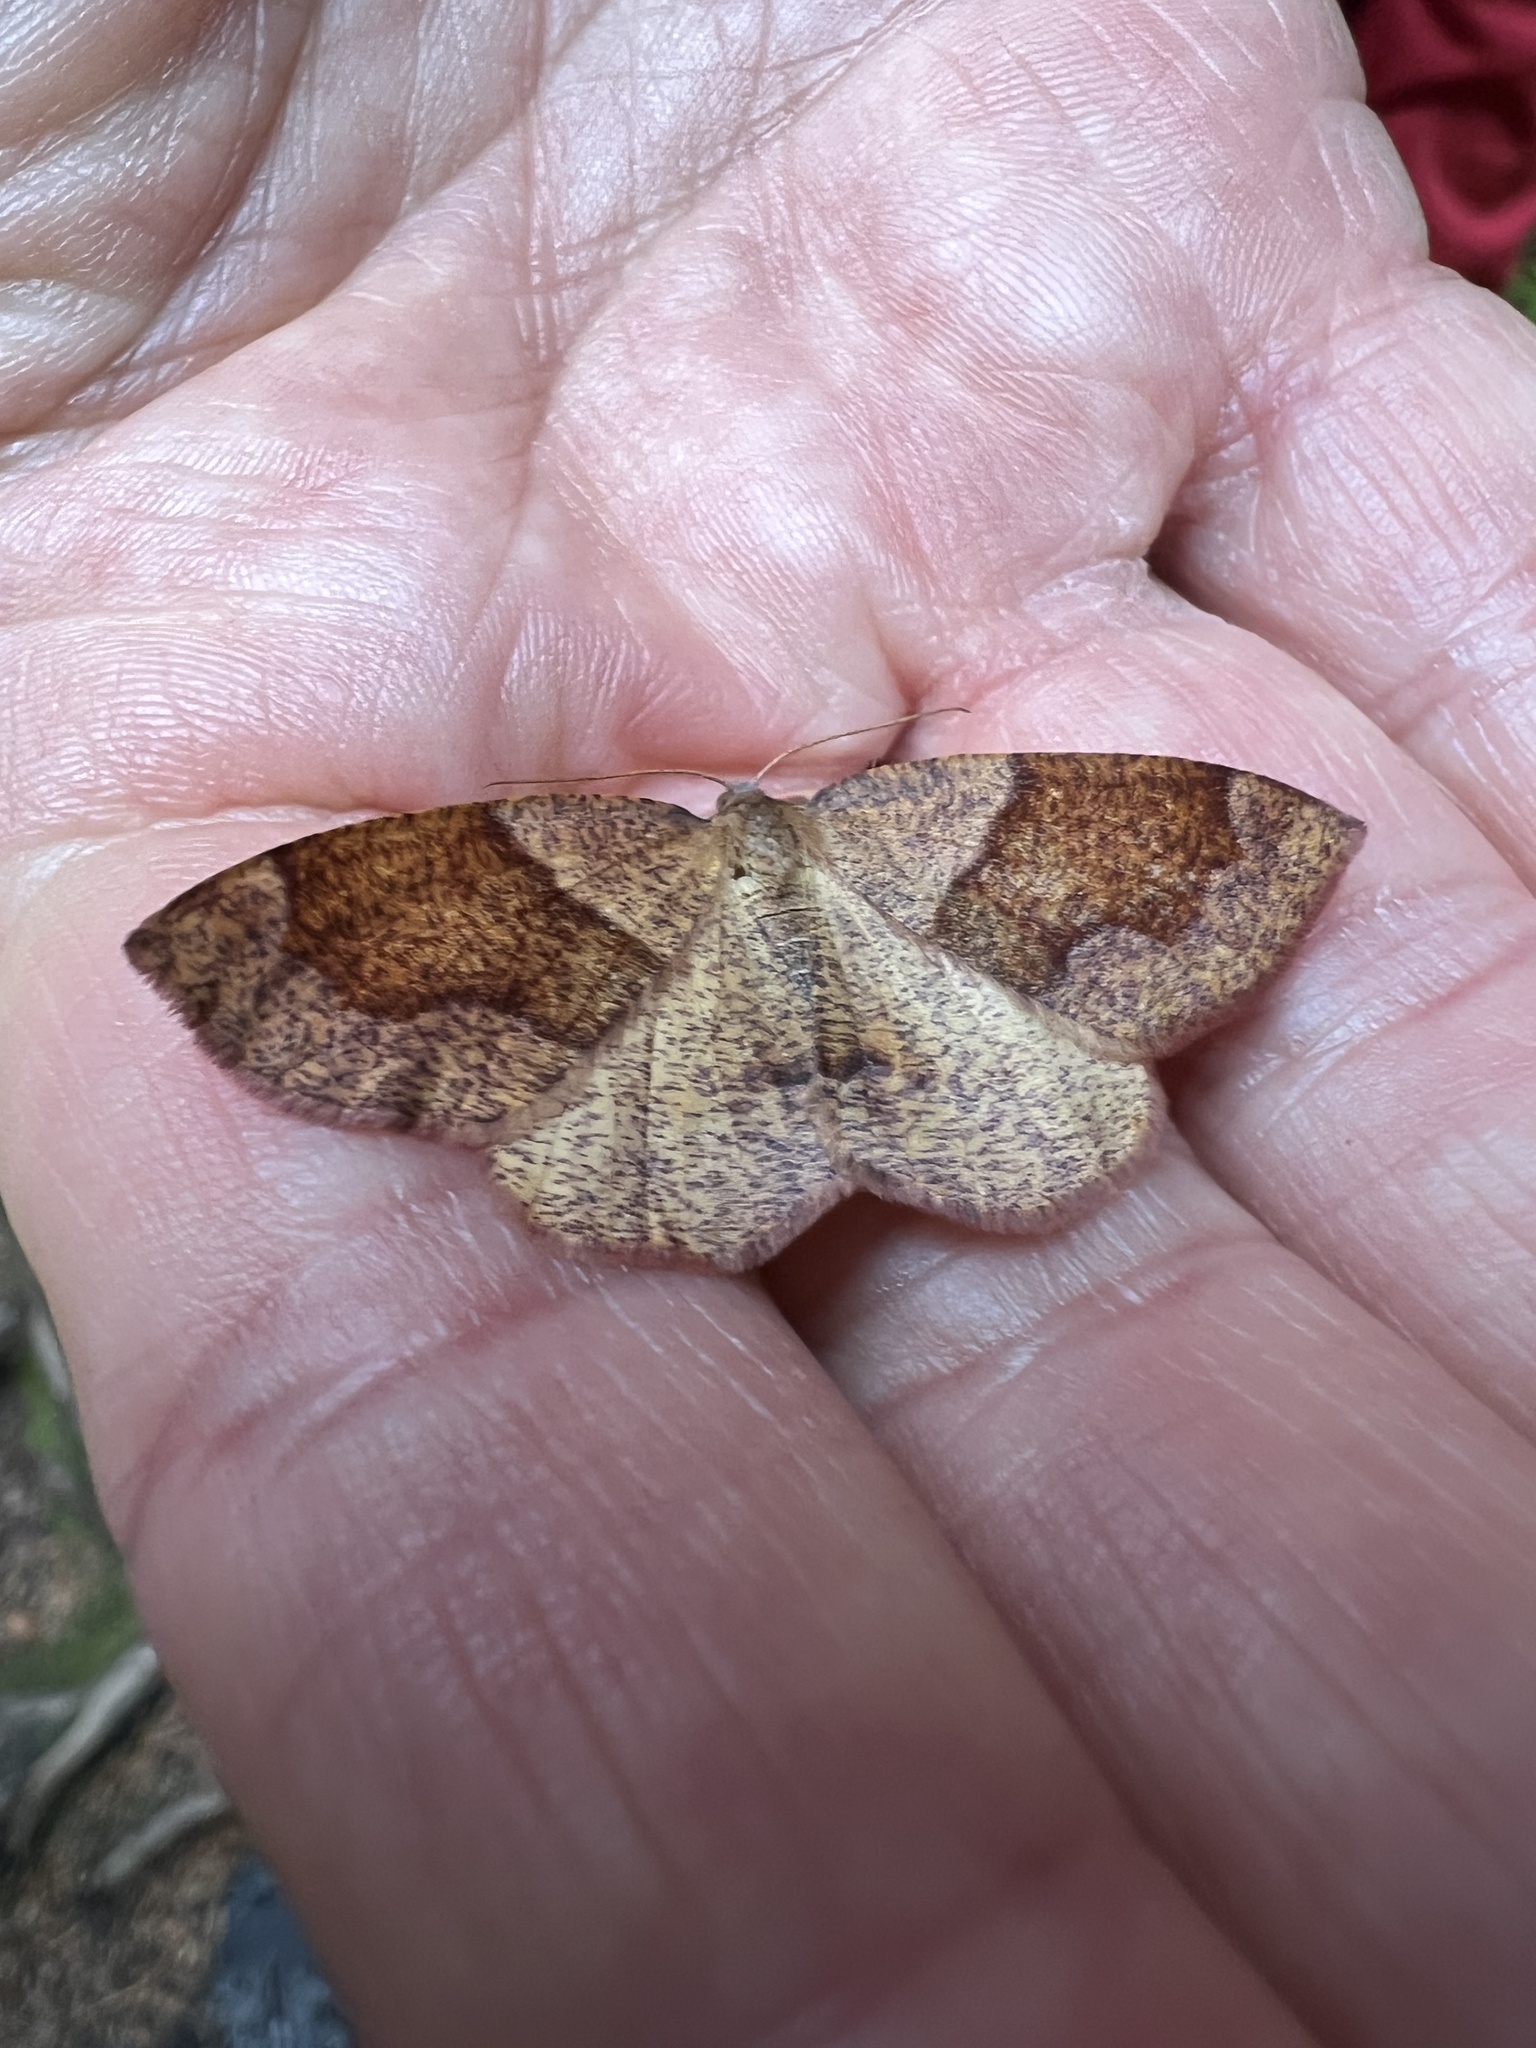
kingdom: Animalia
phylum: Arthropoda
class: Insecta
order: Lepidoptera
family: Geometridae
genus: Plagodis
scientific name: Plagodis pulveraria
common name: Barred umber
